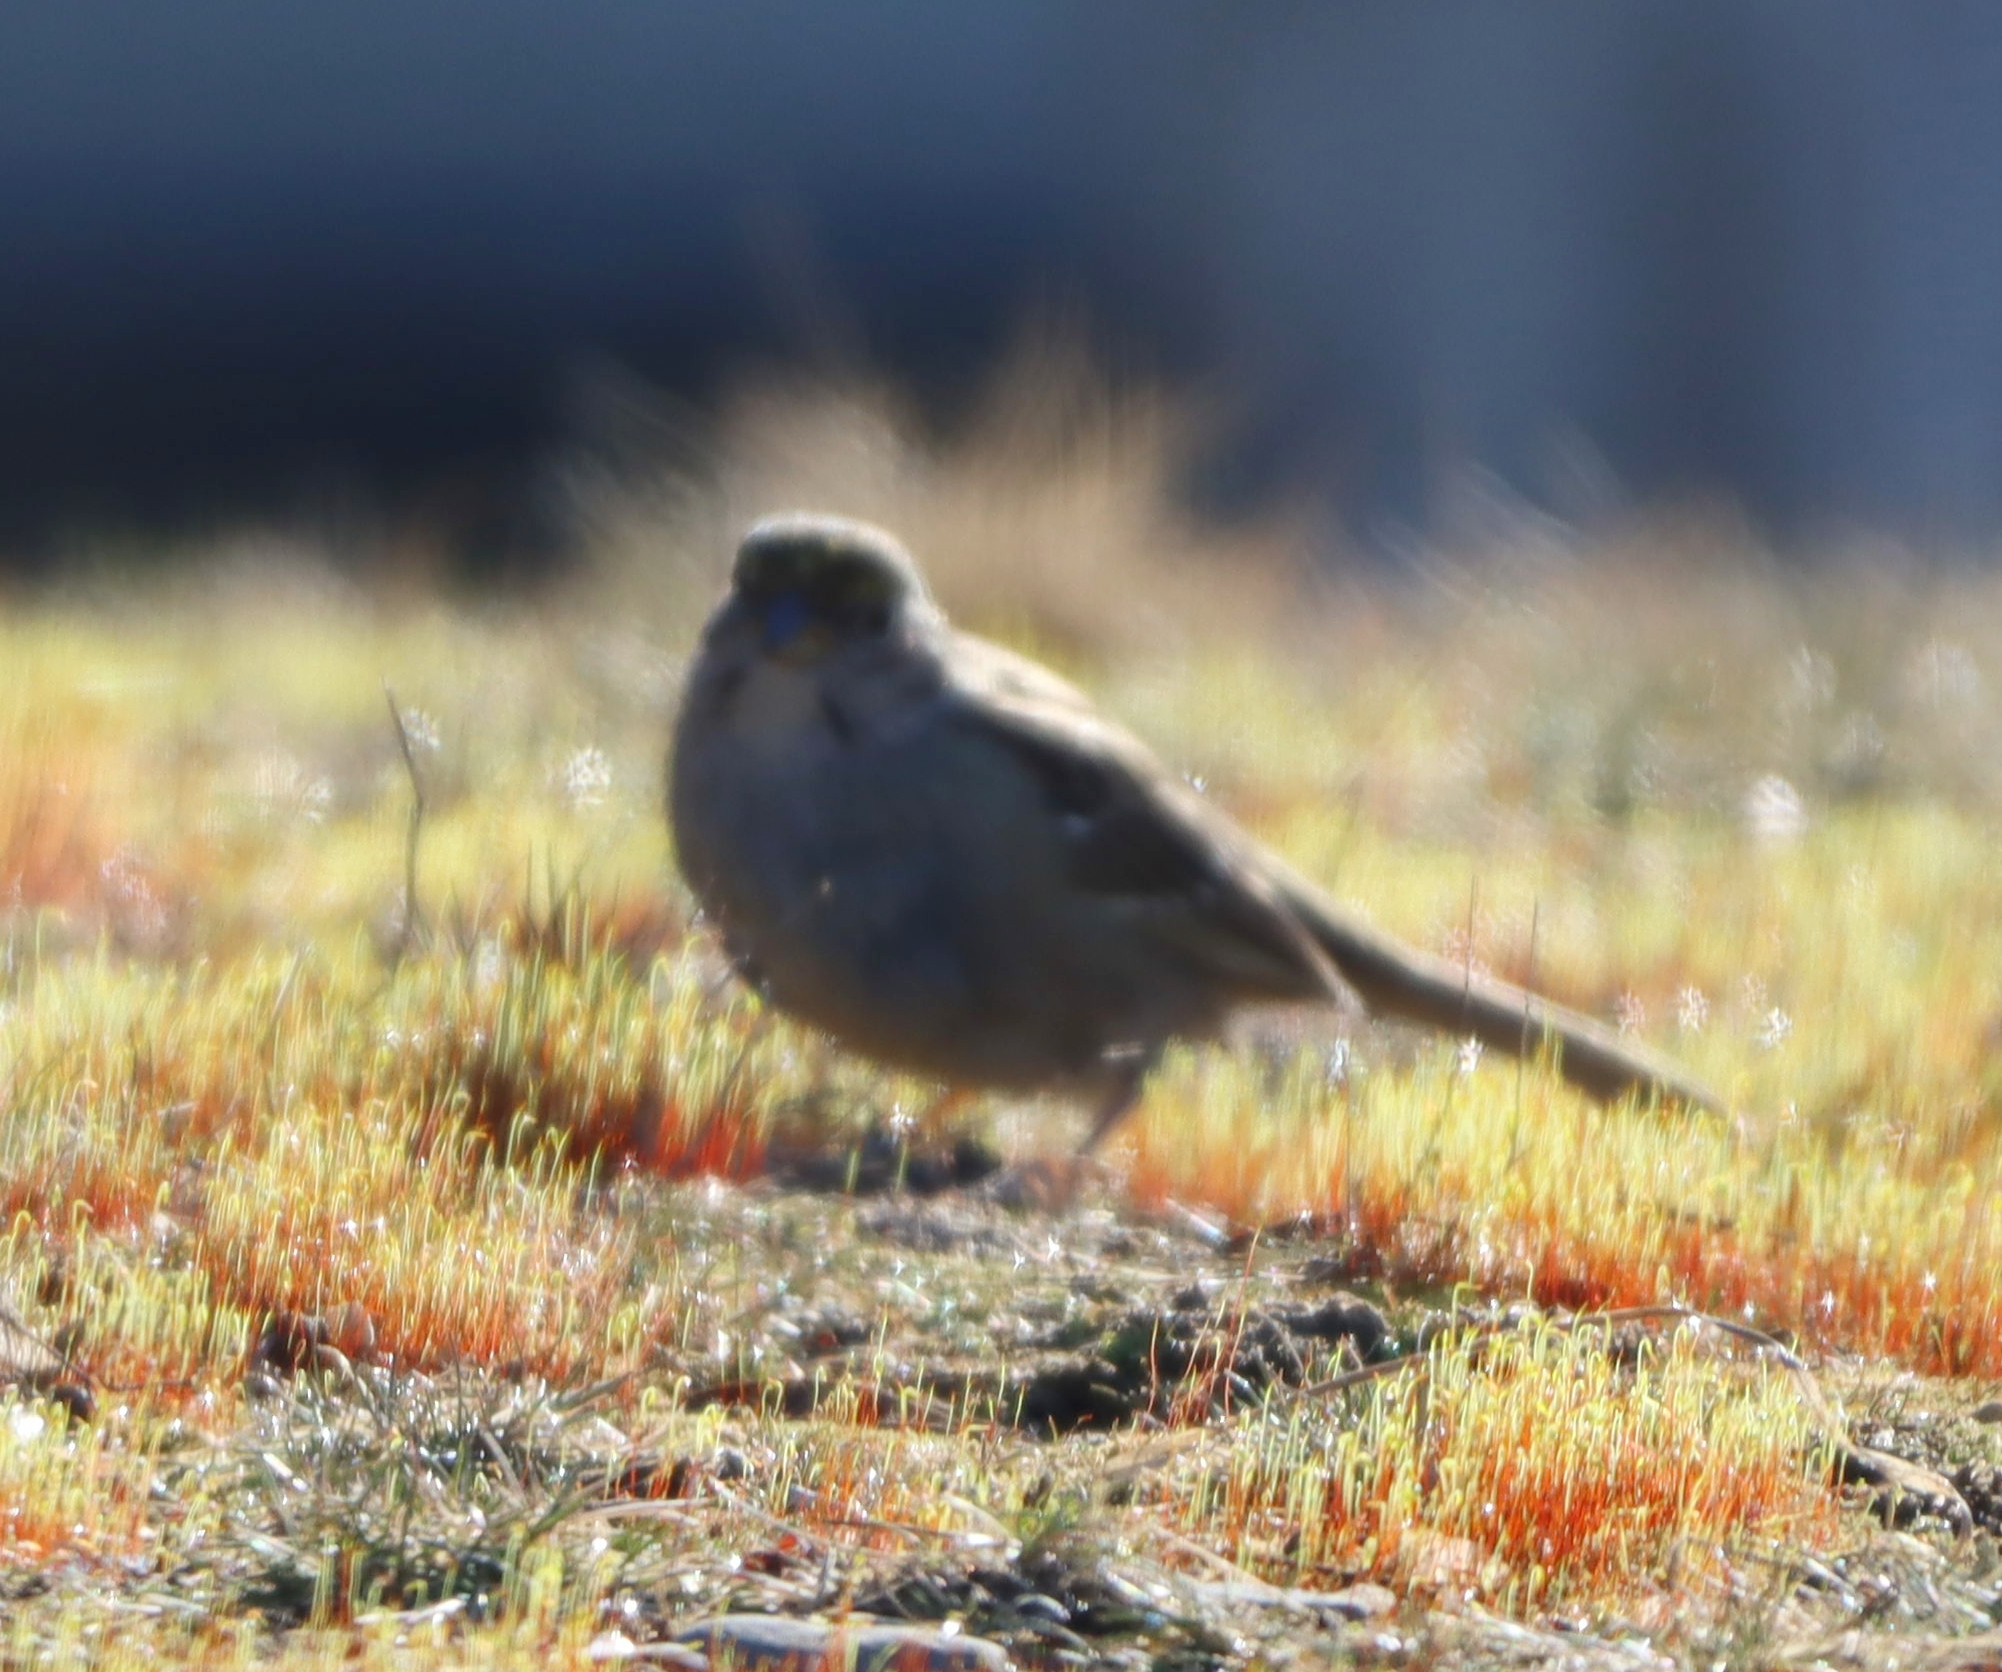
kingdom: Animalia
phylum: Chordata
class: Aves
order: Passeriformes
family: Passerellidae
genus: Zonotrichia
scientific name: Zonotrichia atricapilla
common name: Golden-crowned sparrow
